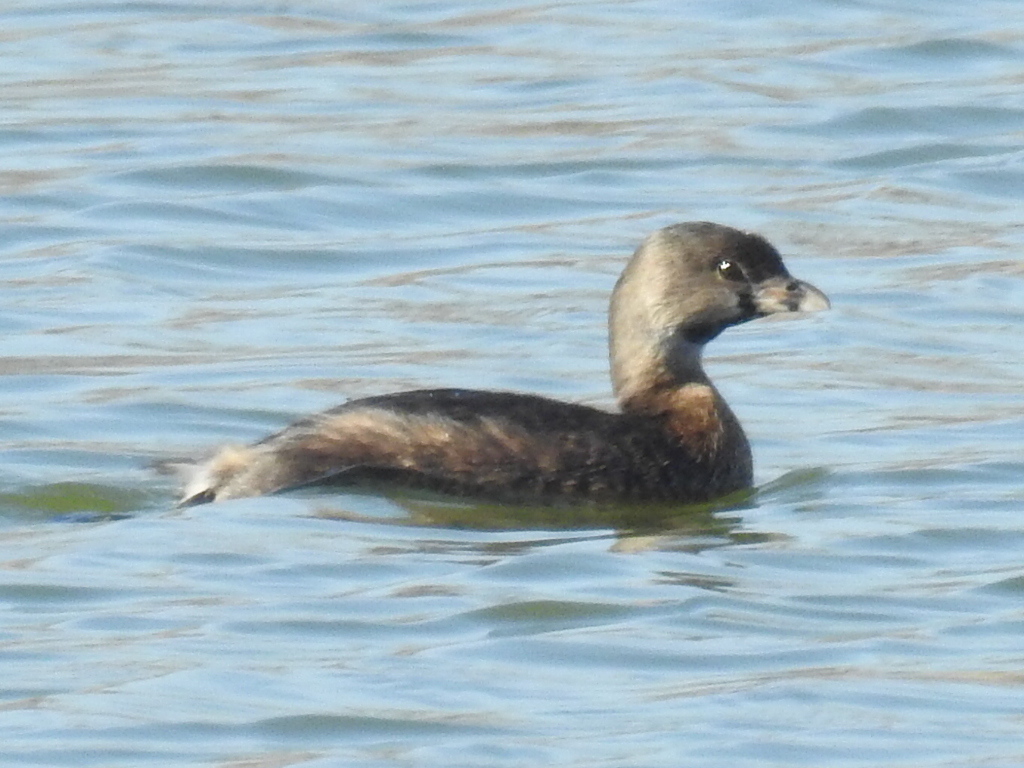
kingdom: Animalia
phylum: Chordata
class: Aves
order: Podicipediformes
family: Podicipedidae
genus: Podilymbus
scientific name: Podilymbus podiceps
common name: Pied-billed grebe
